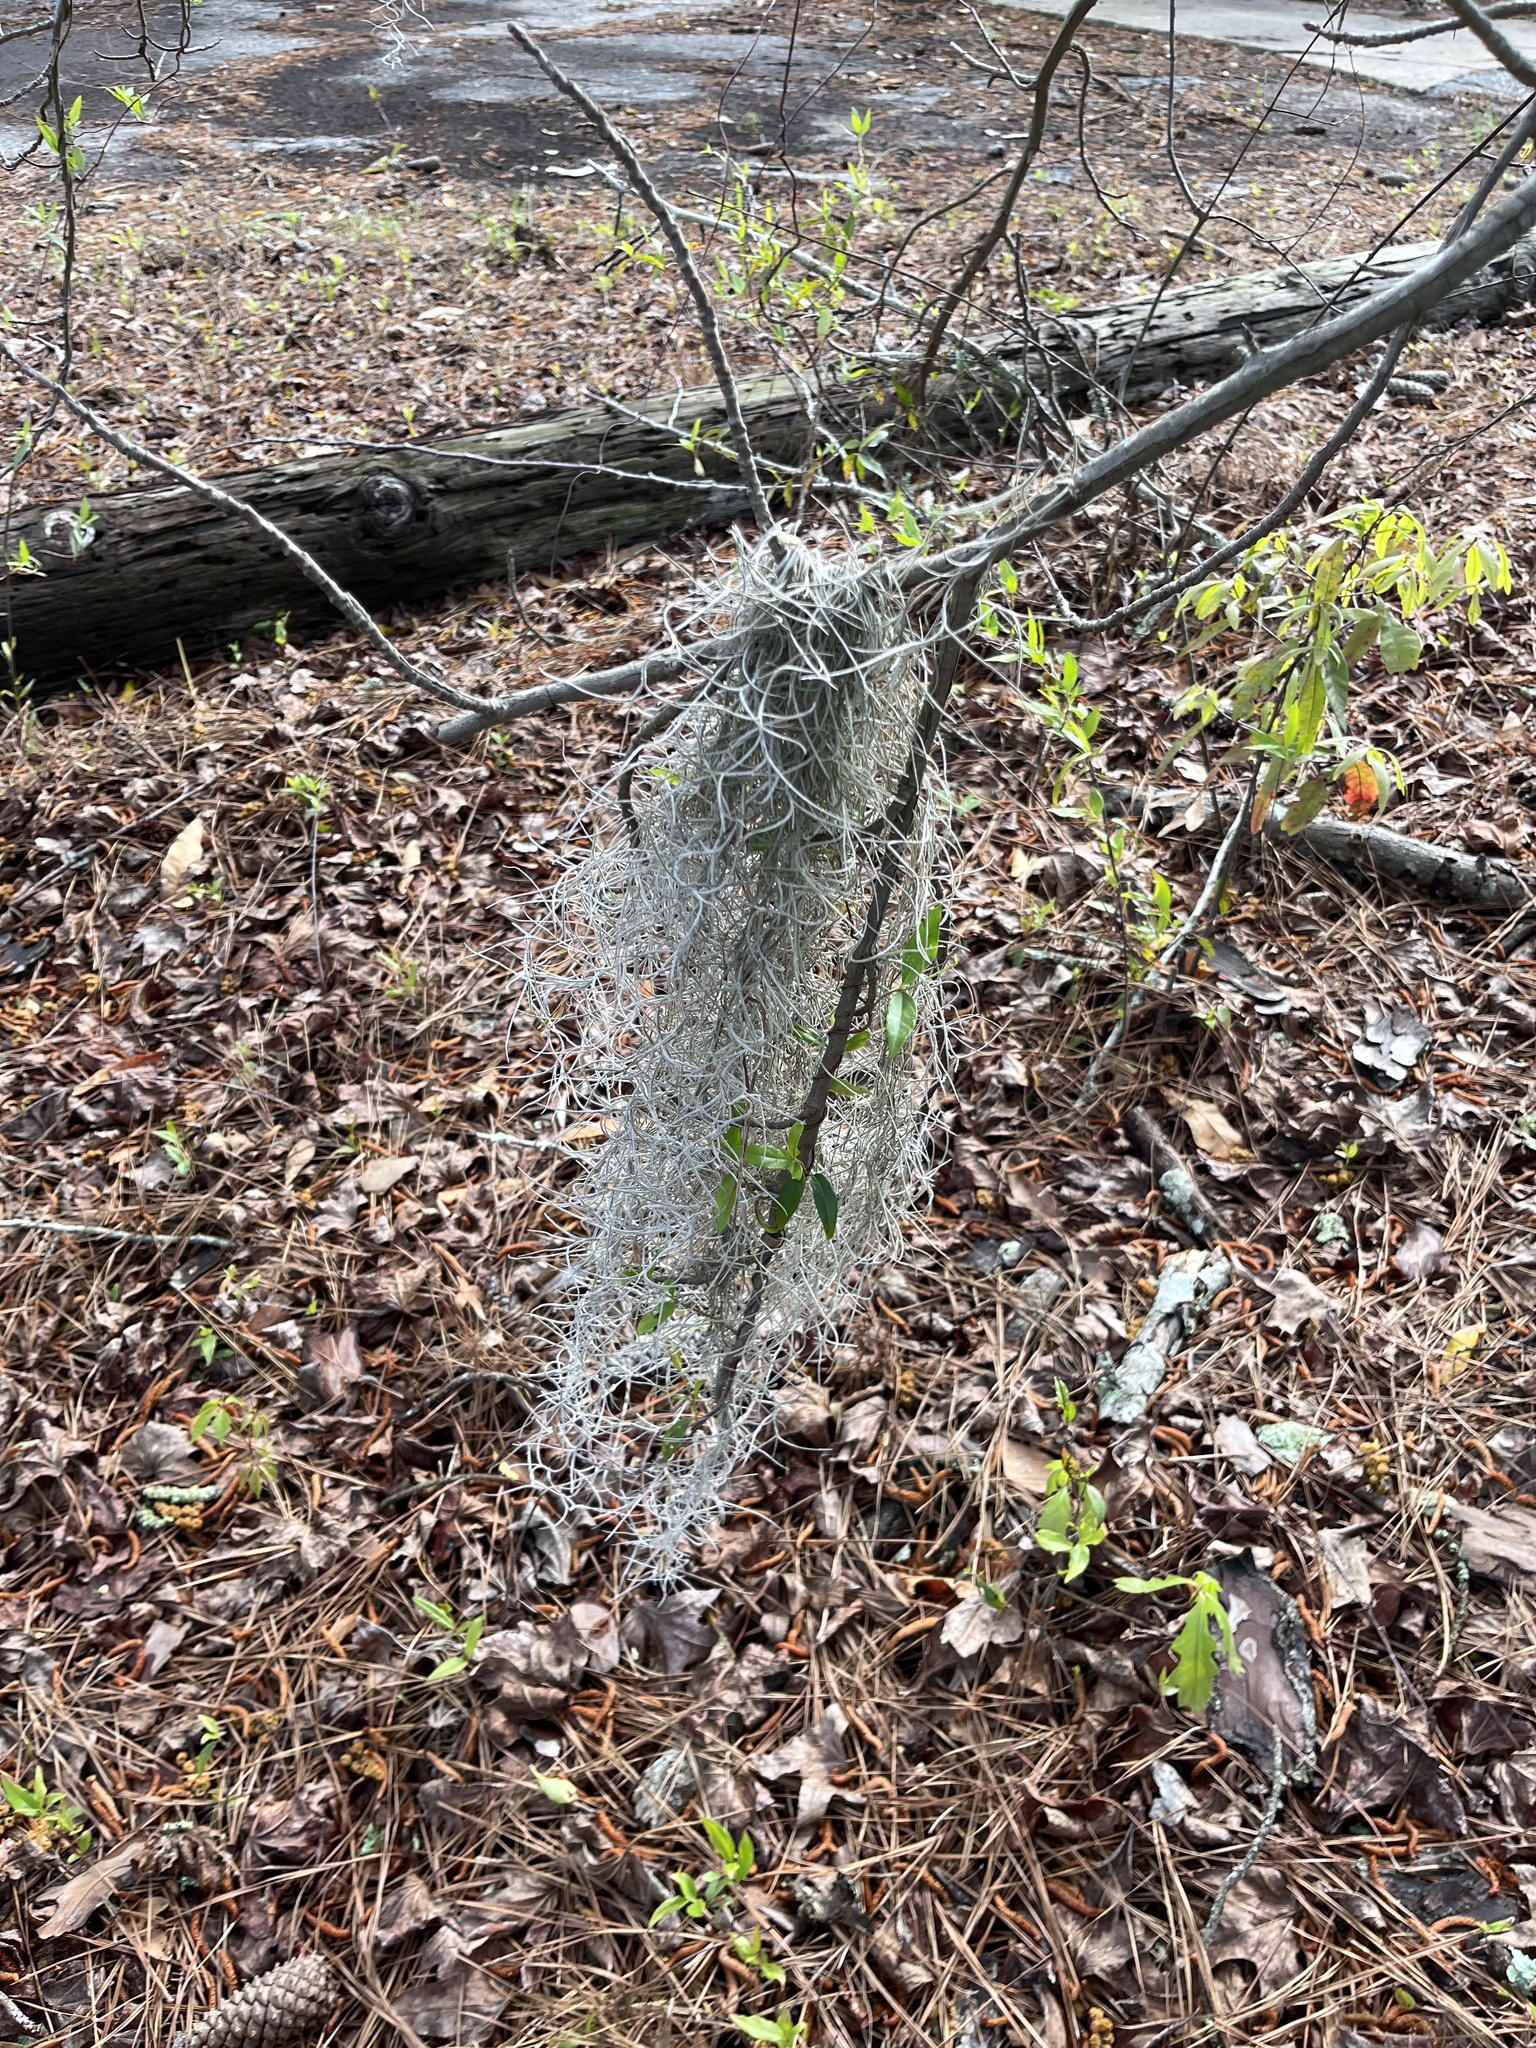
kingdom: Plantae
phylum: Tracheophyta
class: Liliopsida
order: Poales
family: Bromeliaceae
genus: Tillandsia
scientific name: Tillandsia usneoides
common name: Spanish moss
